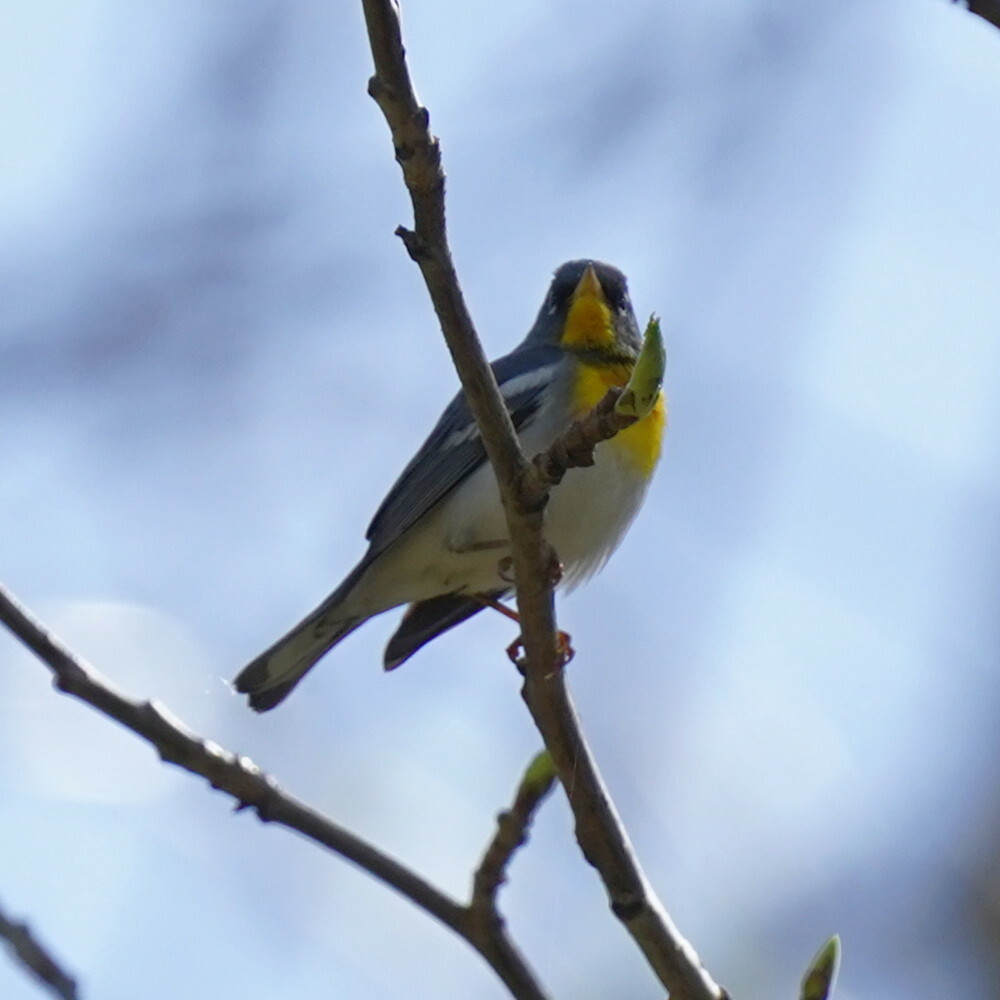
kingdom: Animalia
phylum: Chordata
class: Aves
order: Passeriformes
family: Parulidae
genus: Setophaga
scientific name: Setophaga americana
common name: Northern parula
